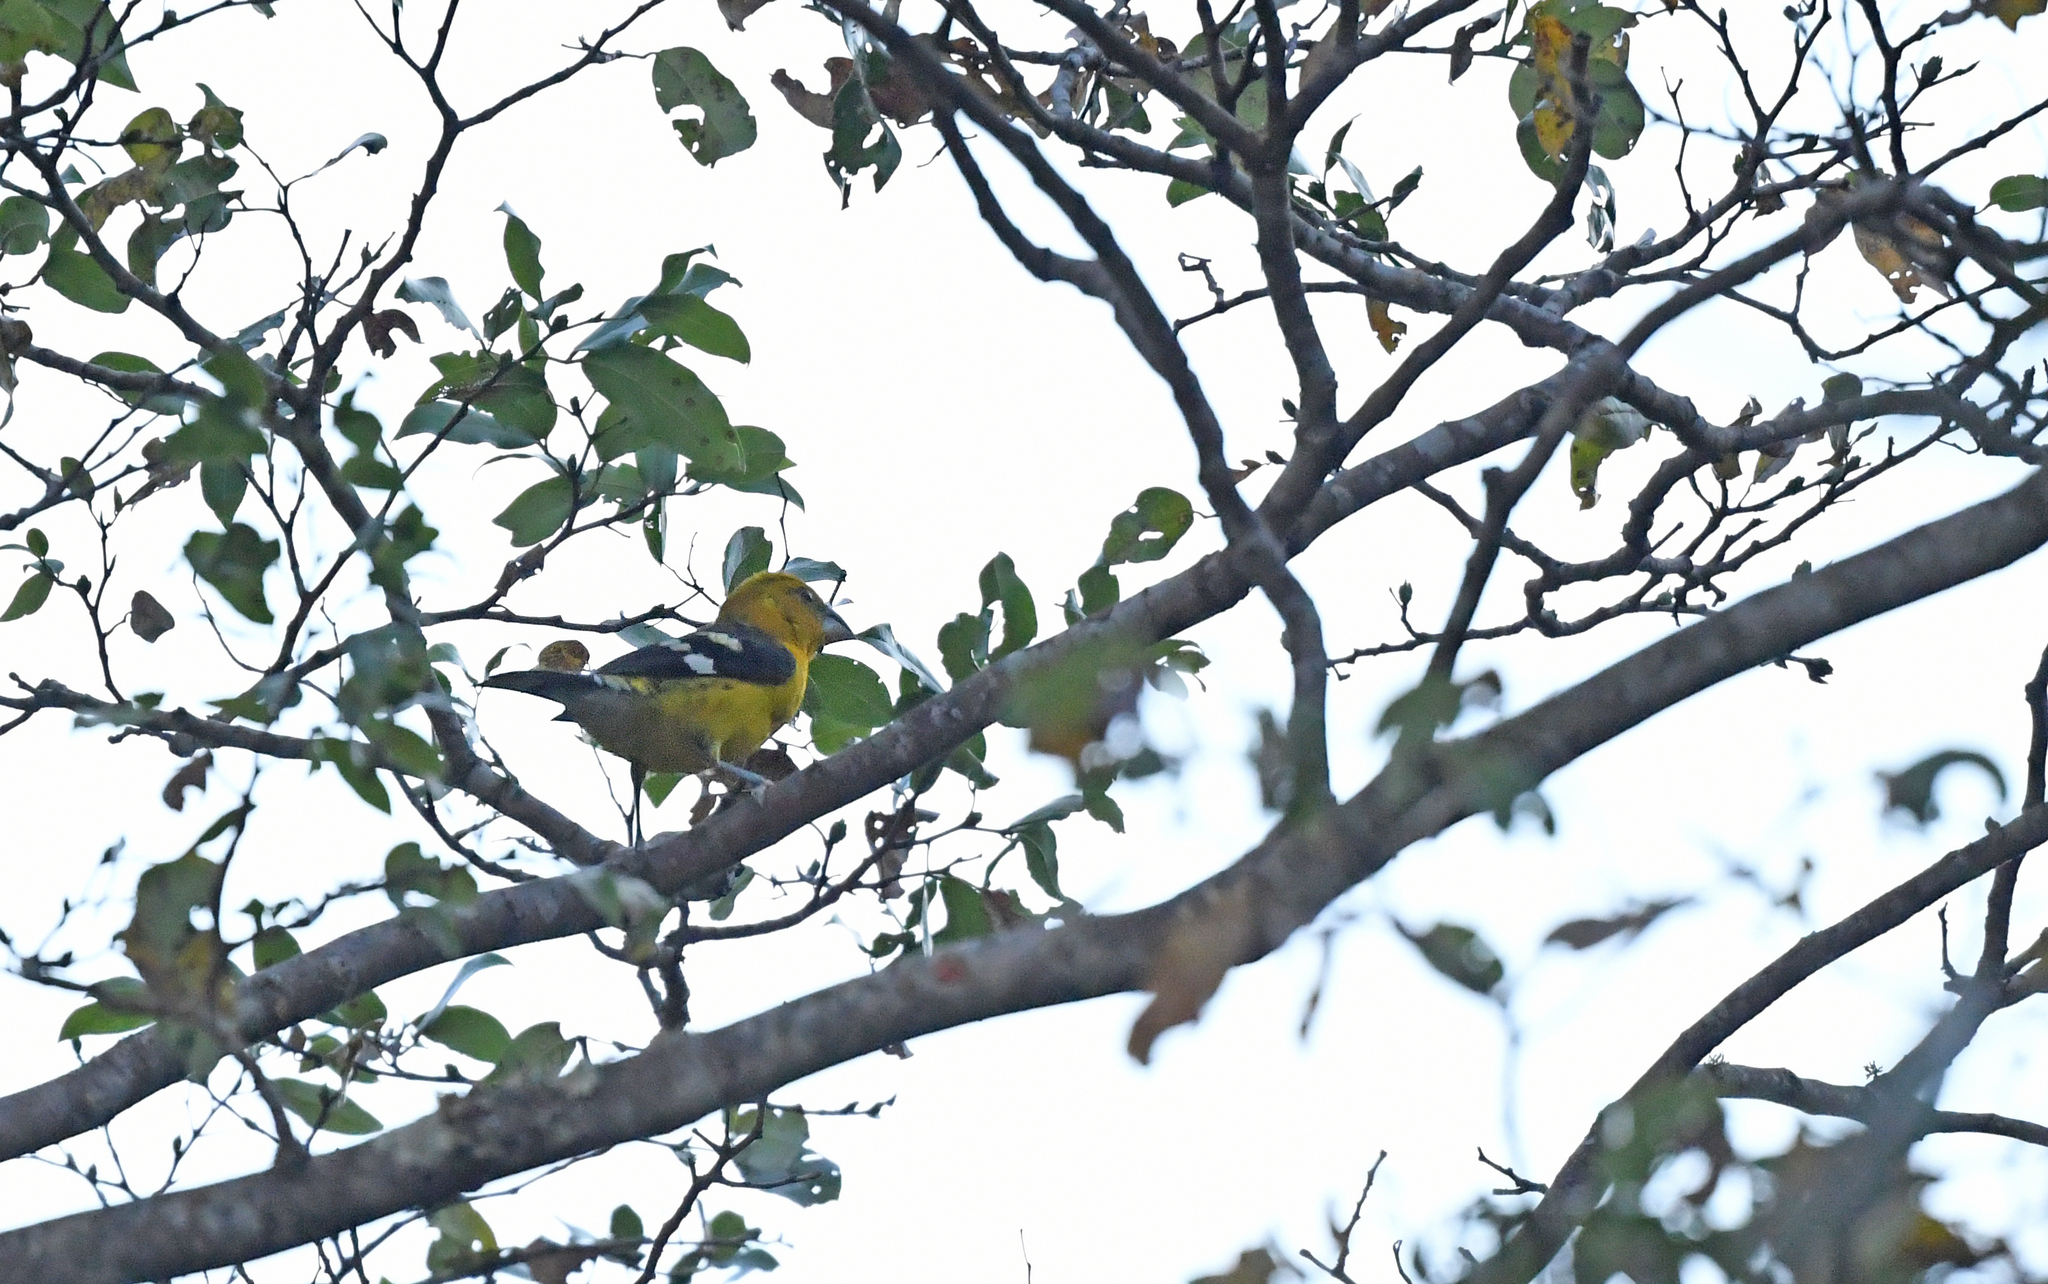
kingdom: Animalia
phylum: Chordata
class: Aves
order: Passeriformes
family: Cardinalidae
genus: Pheucticus
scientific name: Pheucticus chrysogaster
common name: Golden grosbeak
